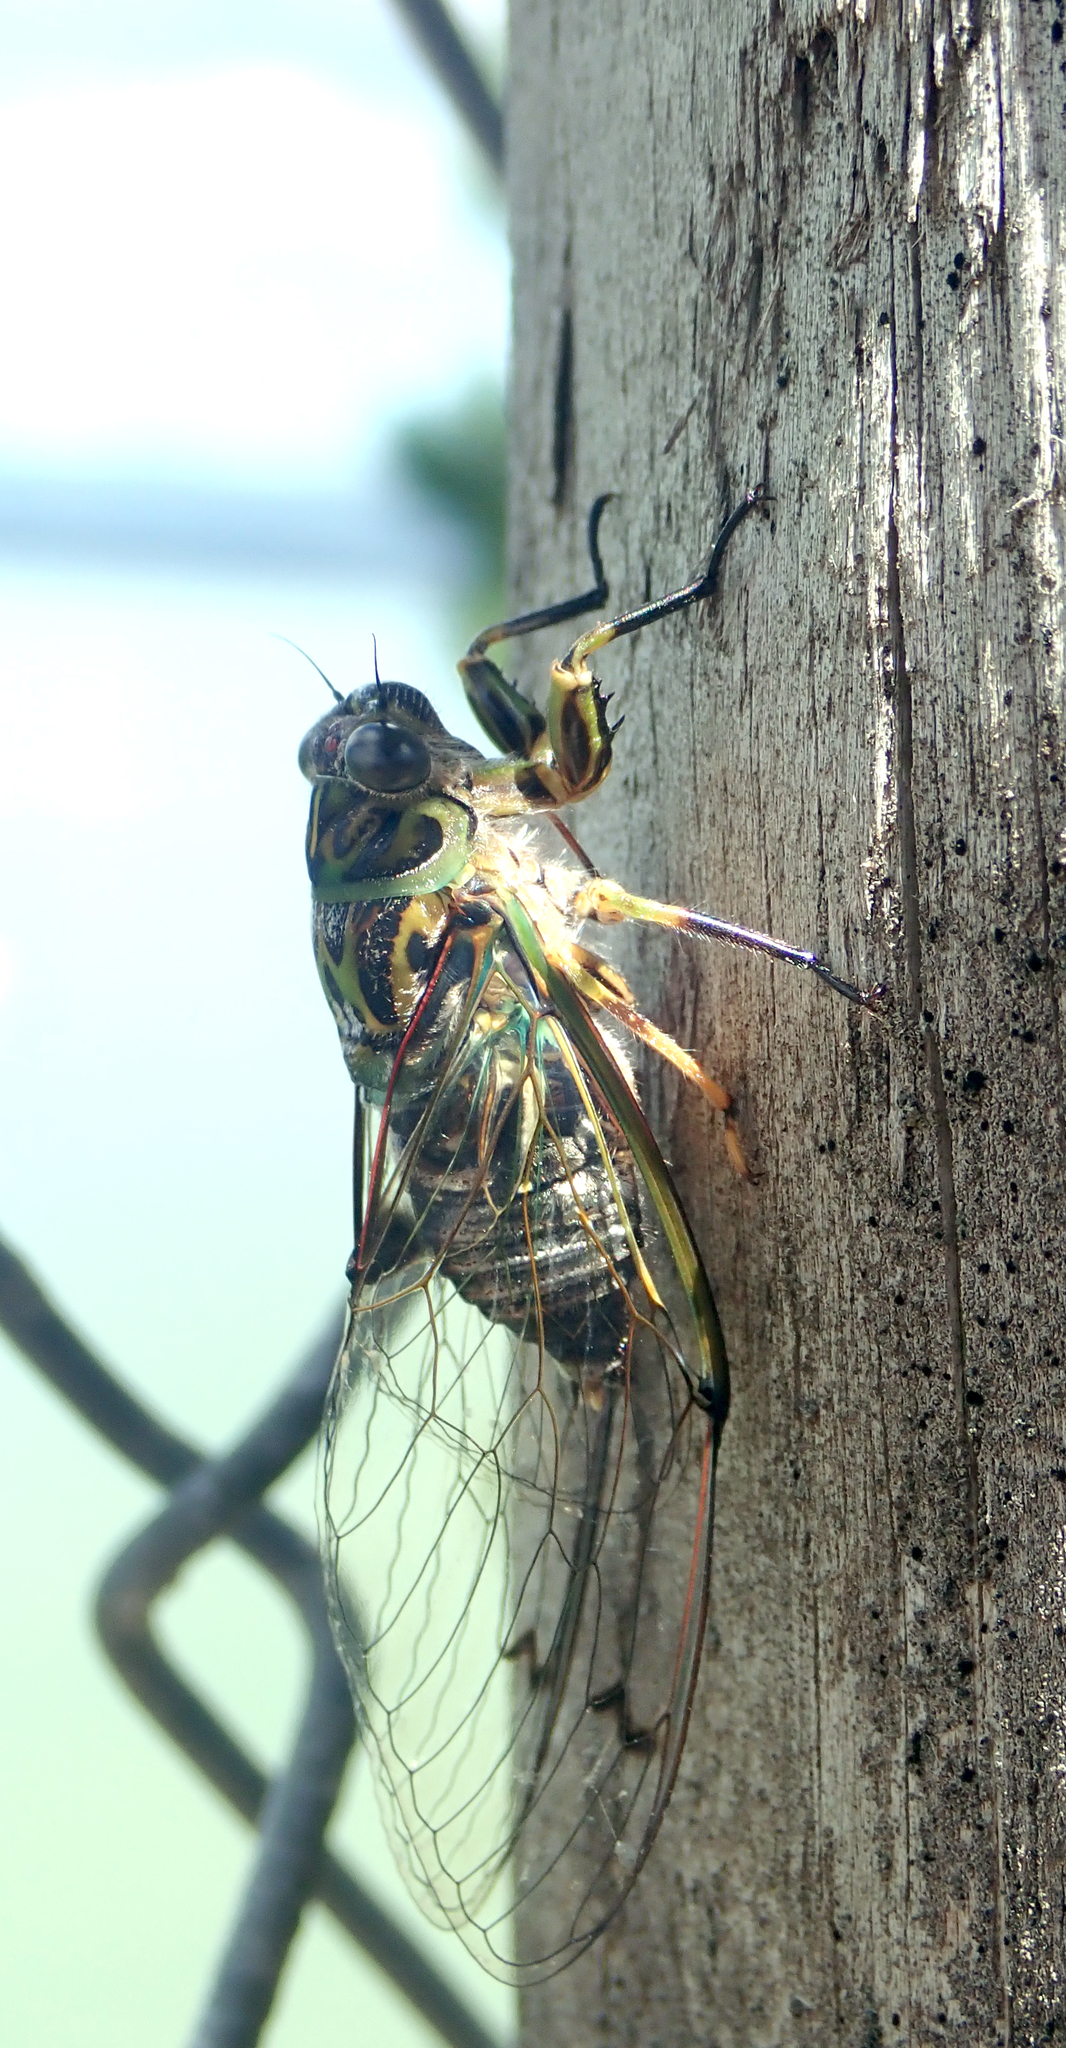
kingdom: Animalia
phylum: Arthropoda
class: Insecta
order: Hemiptera
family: Cicadidae
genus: Amphipsalta
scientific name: Amphipsalta zelandica
